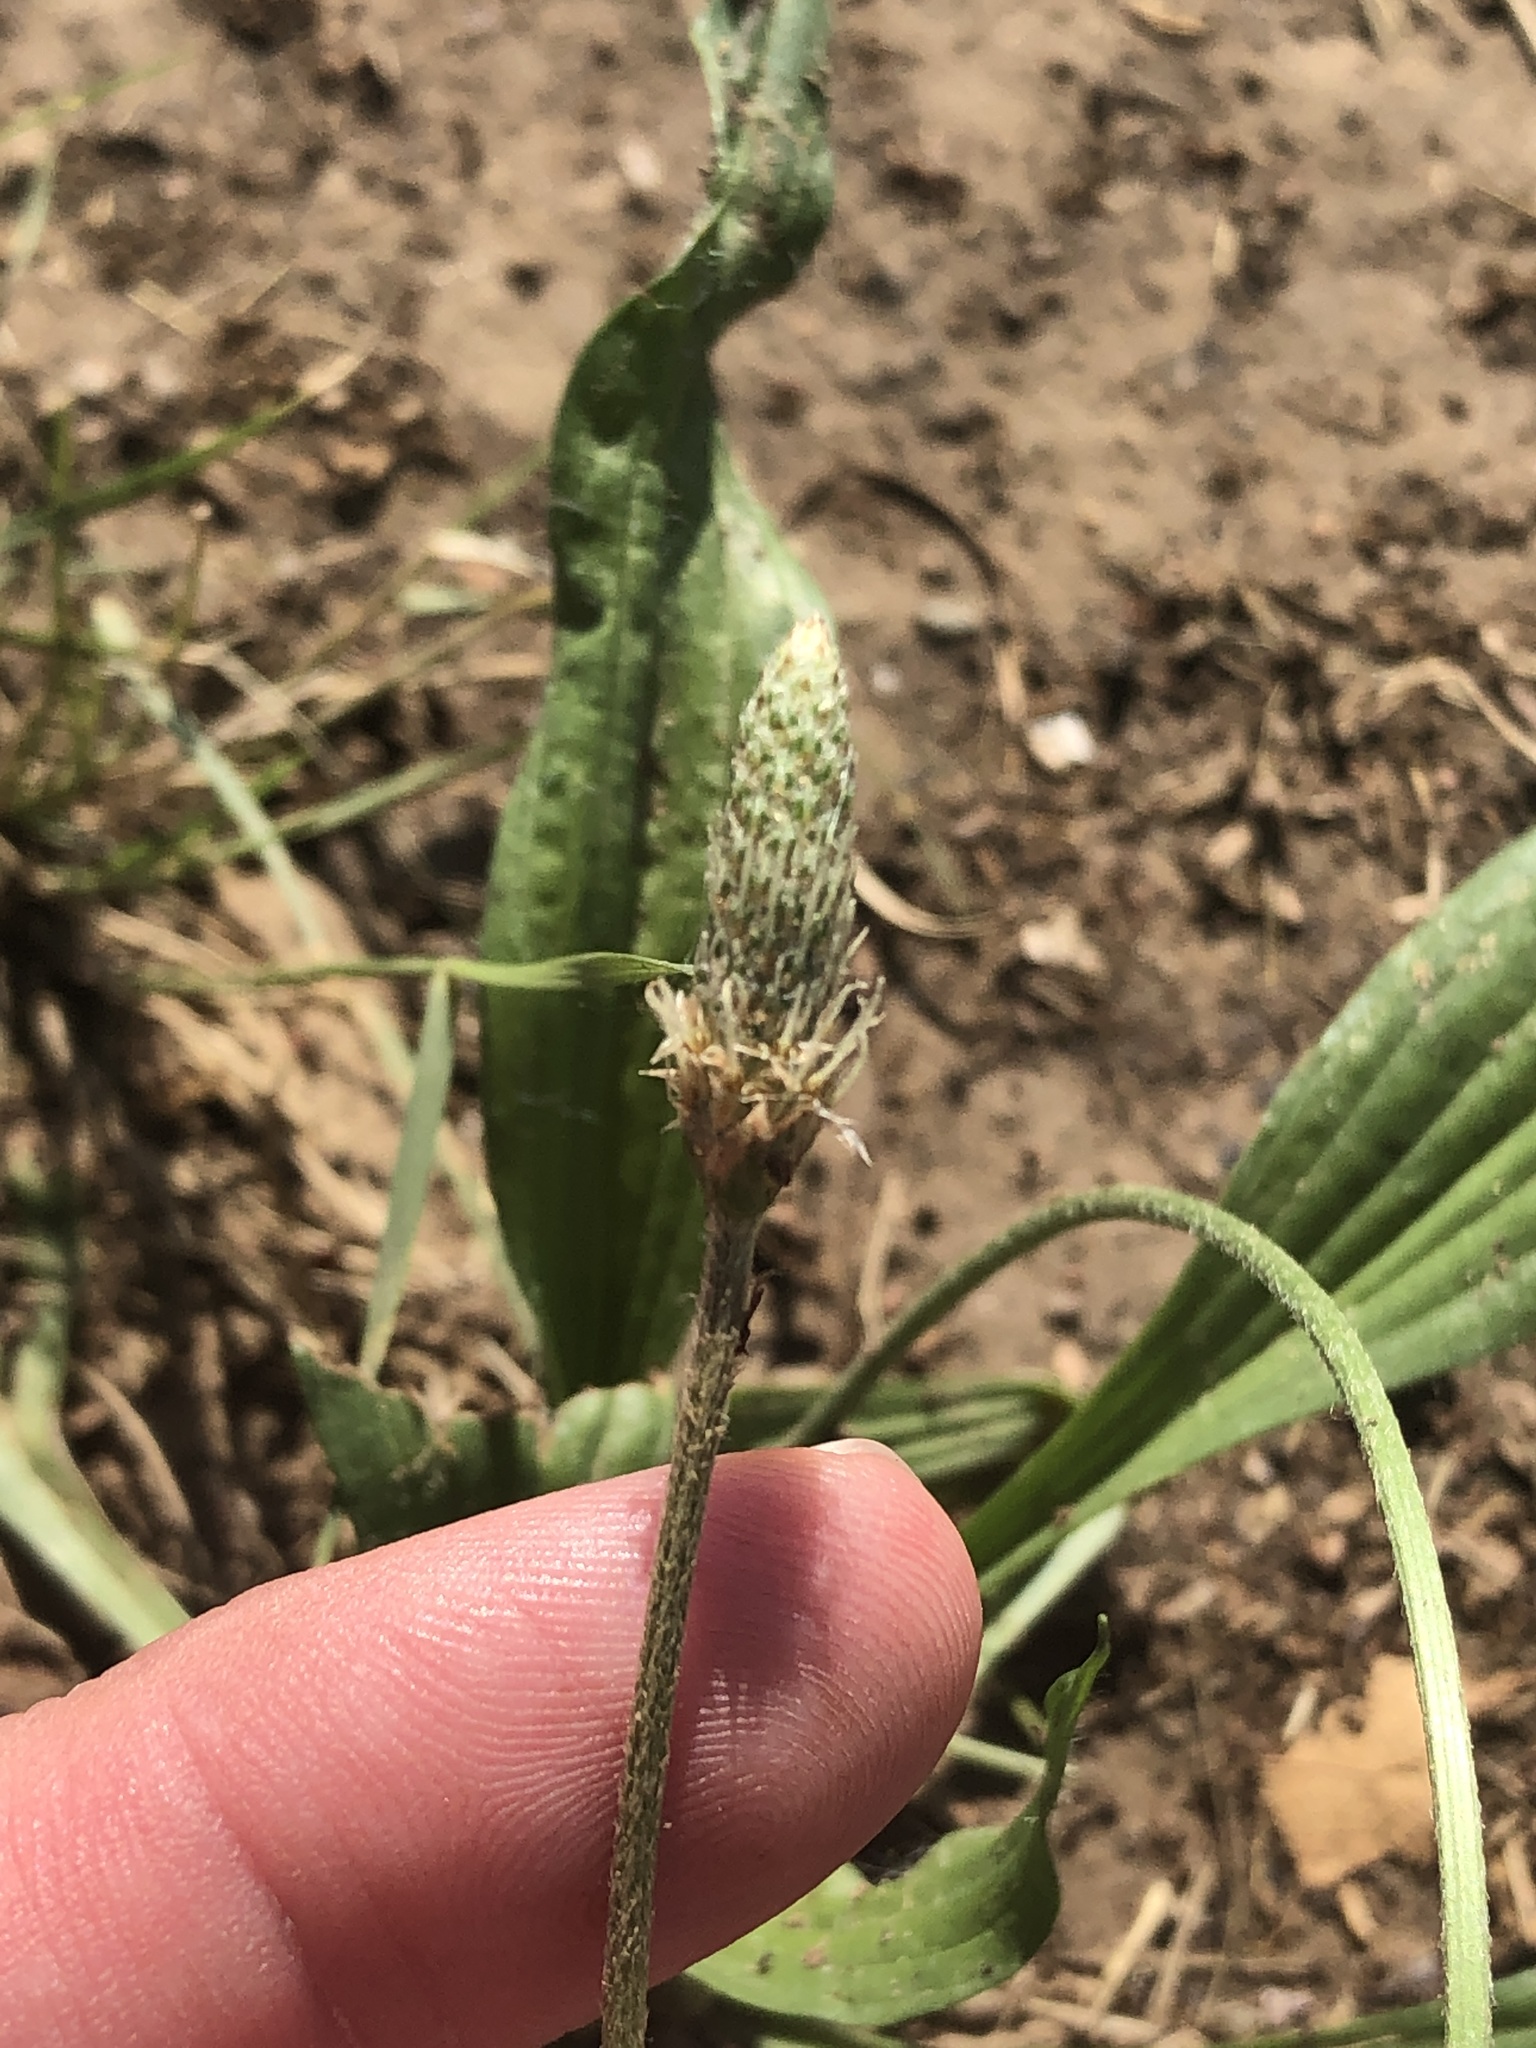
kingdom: Plantae
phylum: Tracheophyta
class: Magnoliopsida
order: Lamiales
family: Plantaginaceae
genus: Plantago
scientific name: Plantago lanceolata
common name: Ribwort plantain
